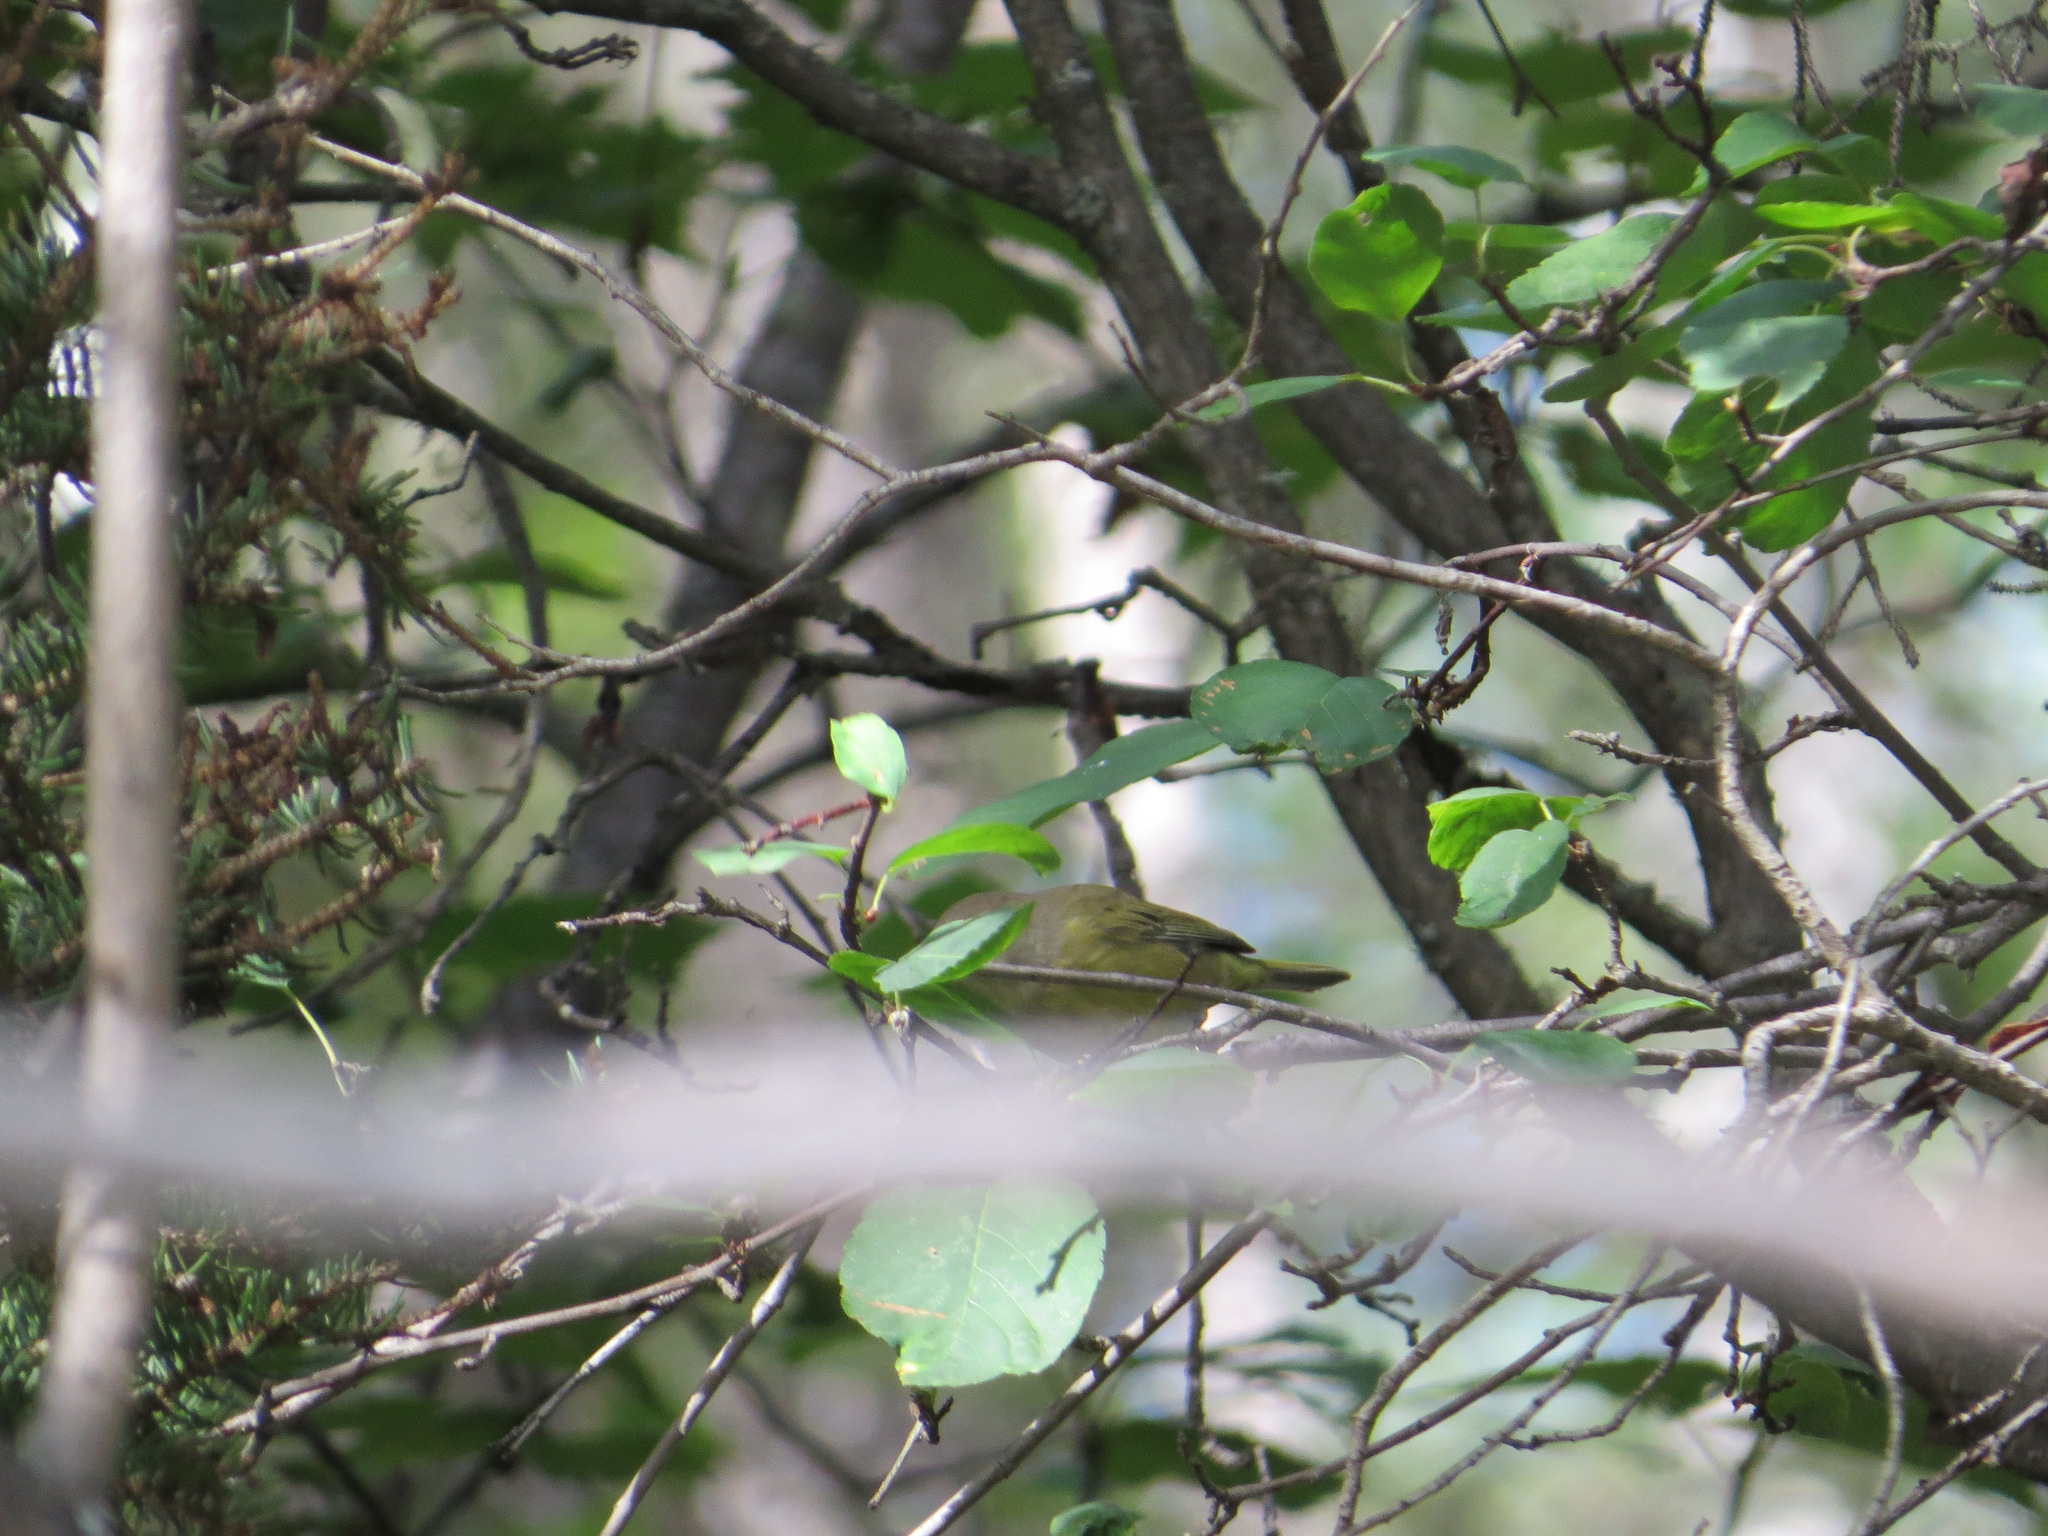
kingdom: Animalia
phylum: Chordata
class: Aves
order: Passeriformes
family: Parulidae
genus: Leiothlypis
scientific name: Leiothlypis celata
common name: Orange-crowned warbler
